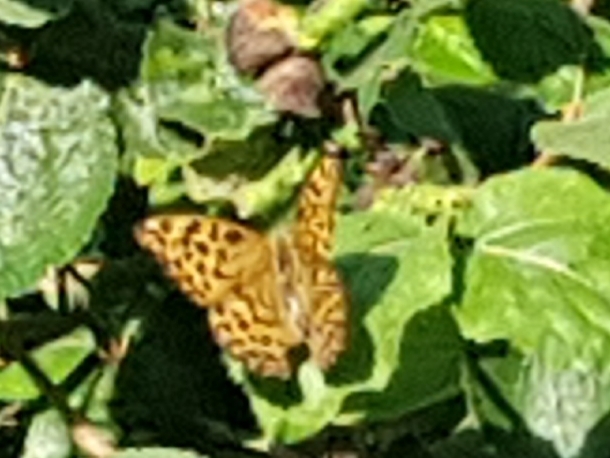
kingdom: Animalia
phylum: Arthropoda
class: Insecta
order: Lepidoptera
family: Nymphalidae
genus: Argynnis
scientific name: Argynnis paphia
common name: Silver-washed fritillary
